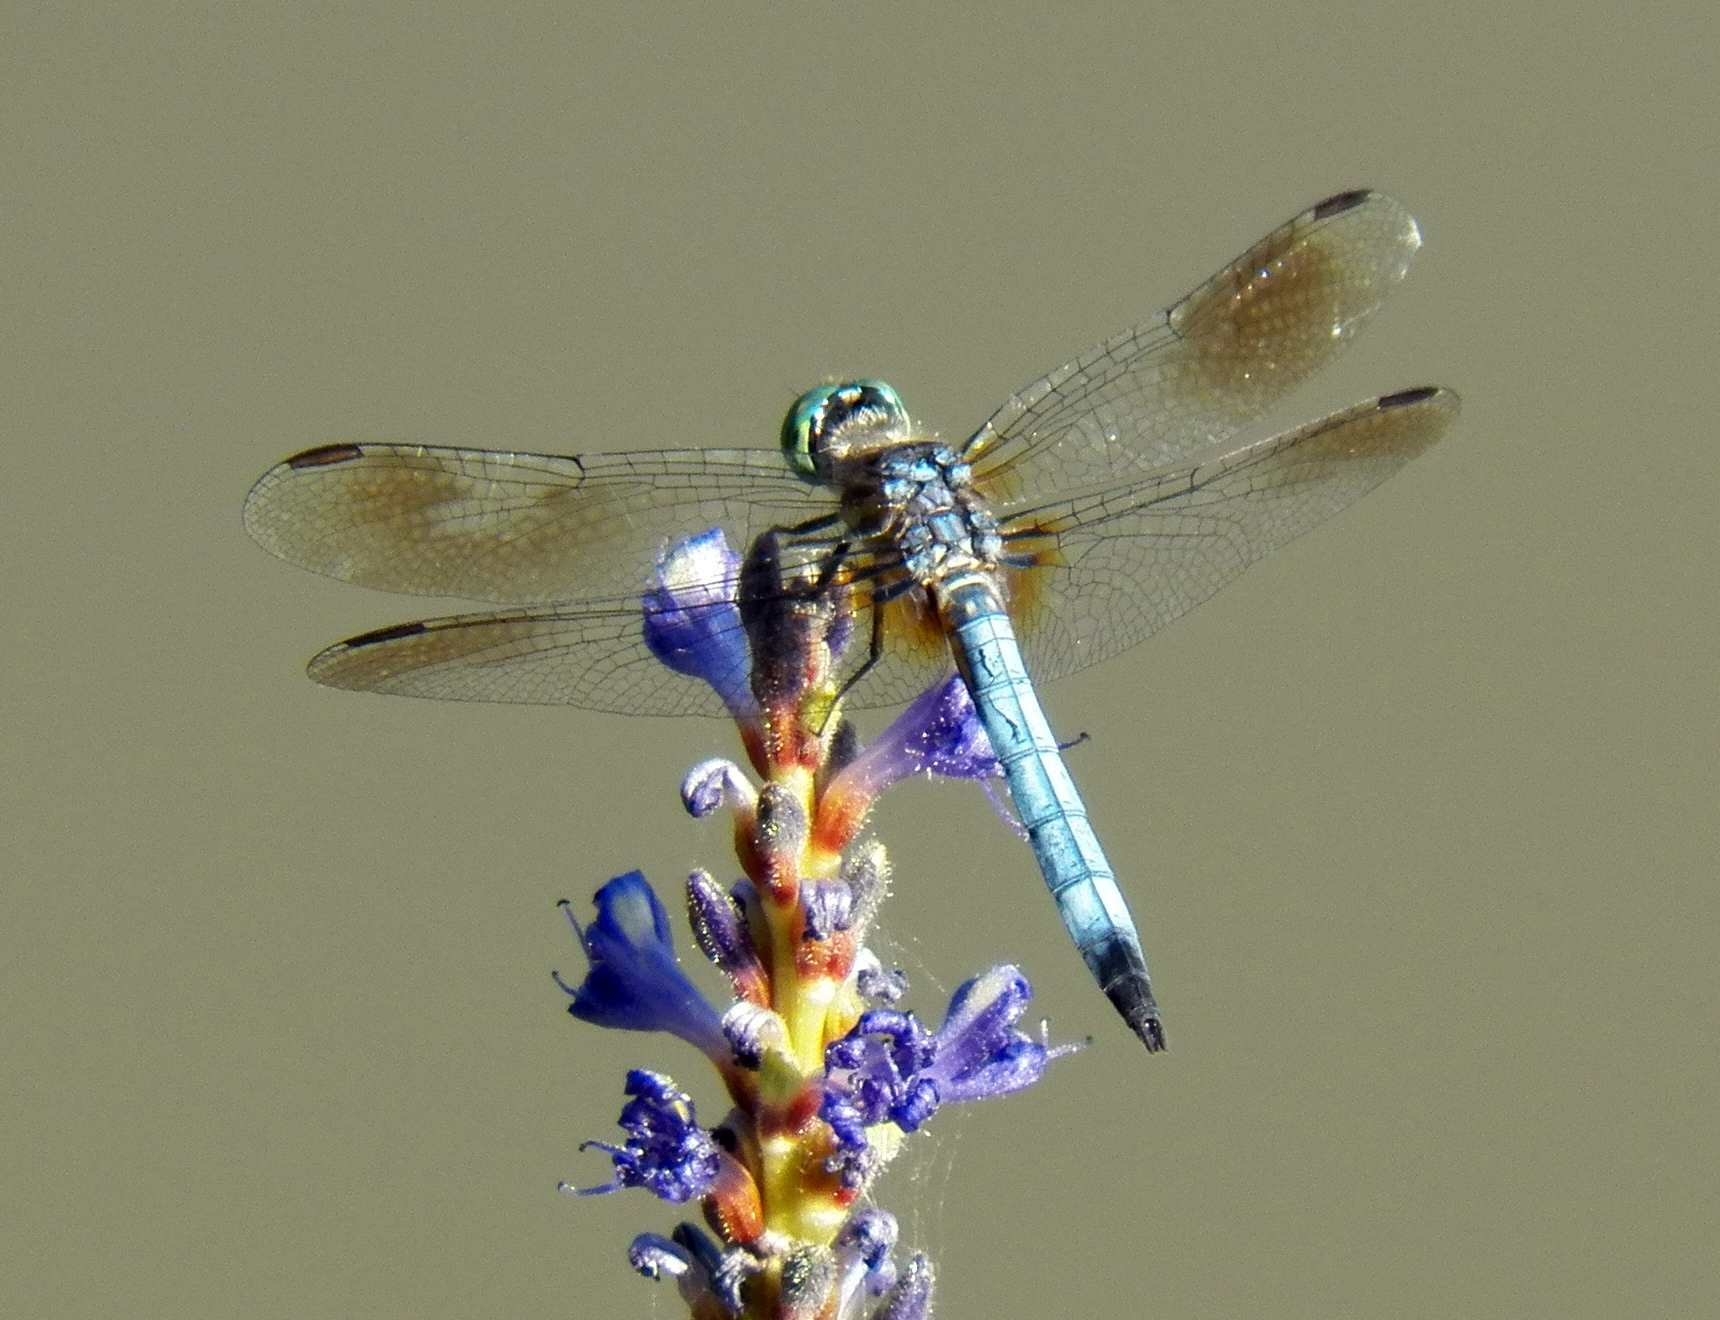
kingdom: Animalia
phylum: Arthropoda
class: Insecta
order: Odonata
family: Libellulidae
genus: Pachydiplax
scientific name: Pachydiplax longipennis
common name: Blue dasher
